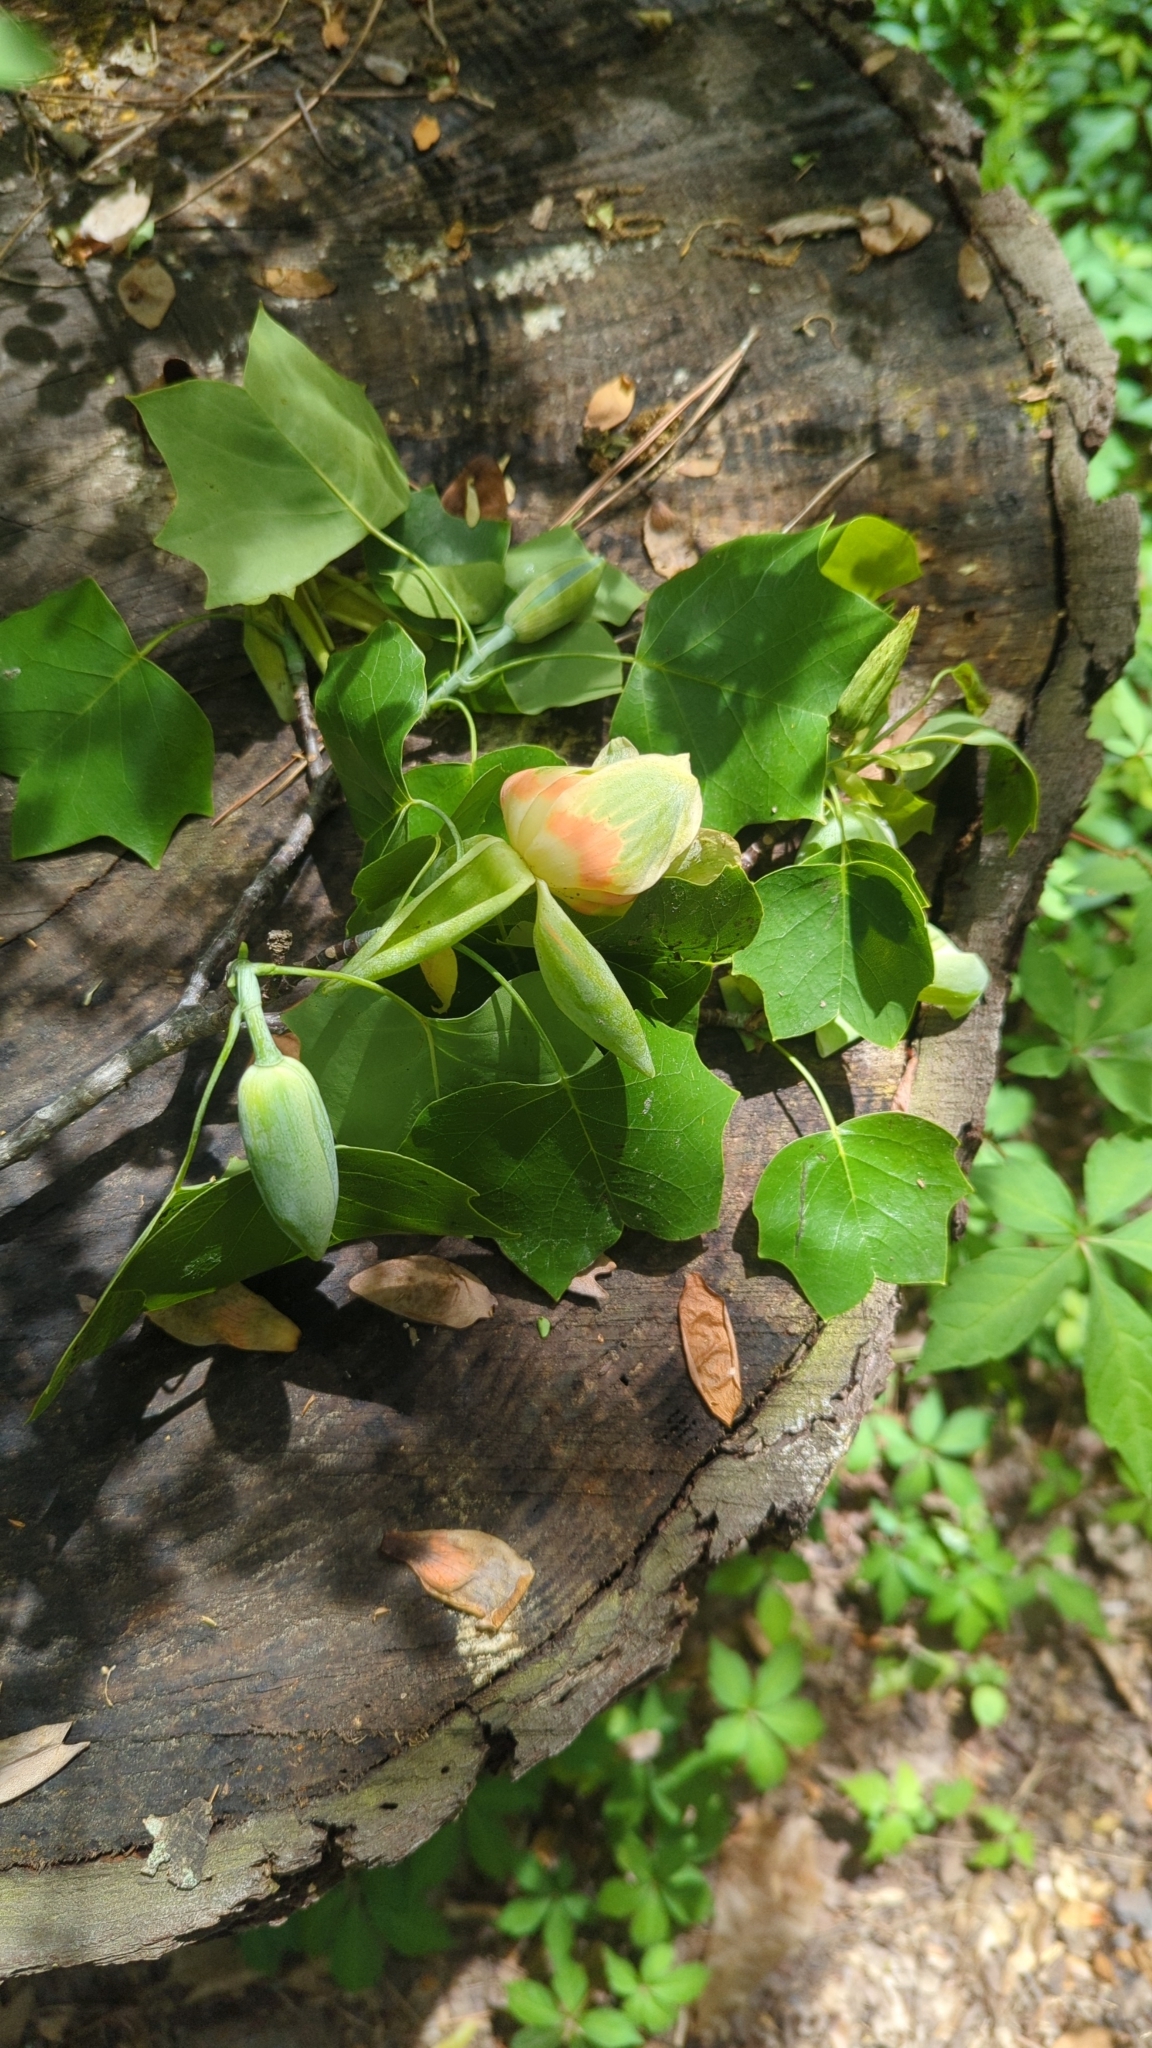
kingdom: Plantae
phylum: Tracheophyta
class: Magnoliopsida
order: Magnoliales
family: Magnoliaceae
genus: Liriodendron
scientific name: Liriodendron tulipifera
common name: Tulip tree
